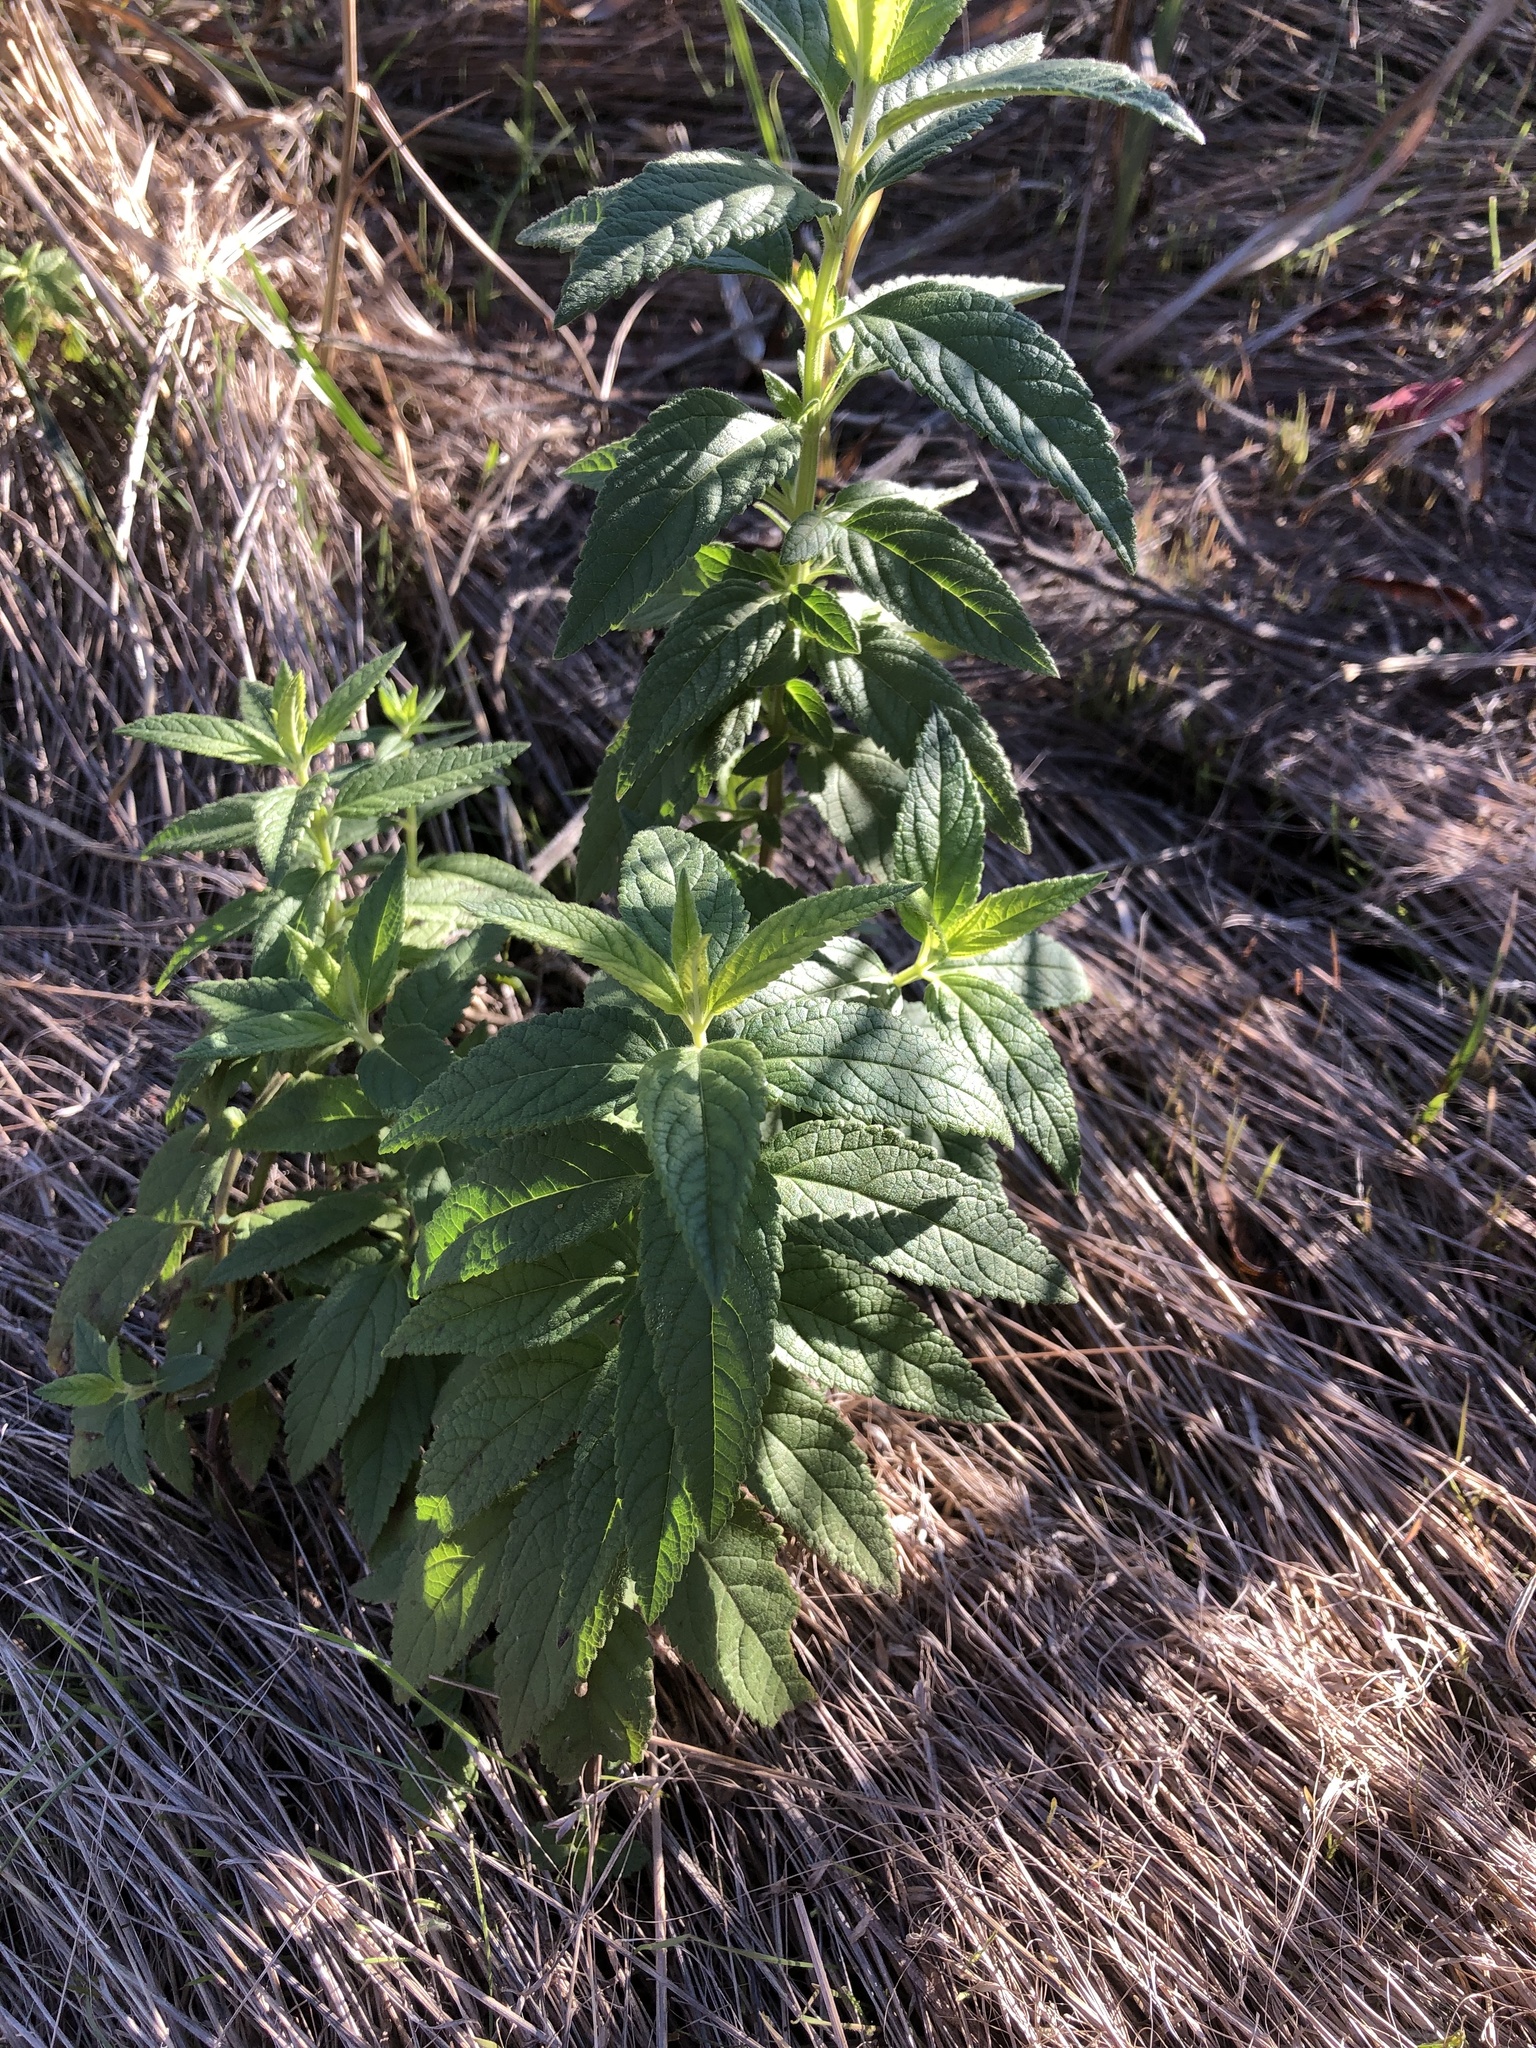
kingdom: Plantae
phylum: Tracheophyta
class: Magnoliopsida
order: Lamiales
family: Lamiaceae
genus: Teucrium
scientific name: Teucrium canadense
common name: American germander
